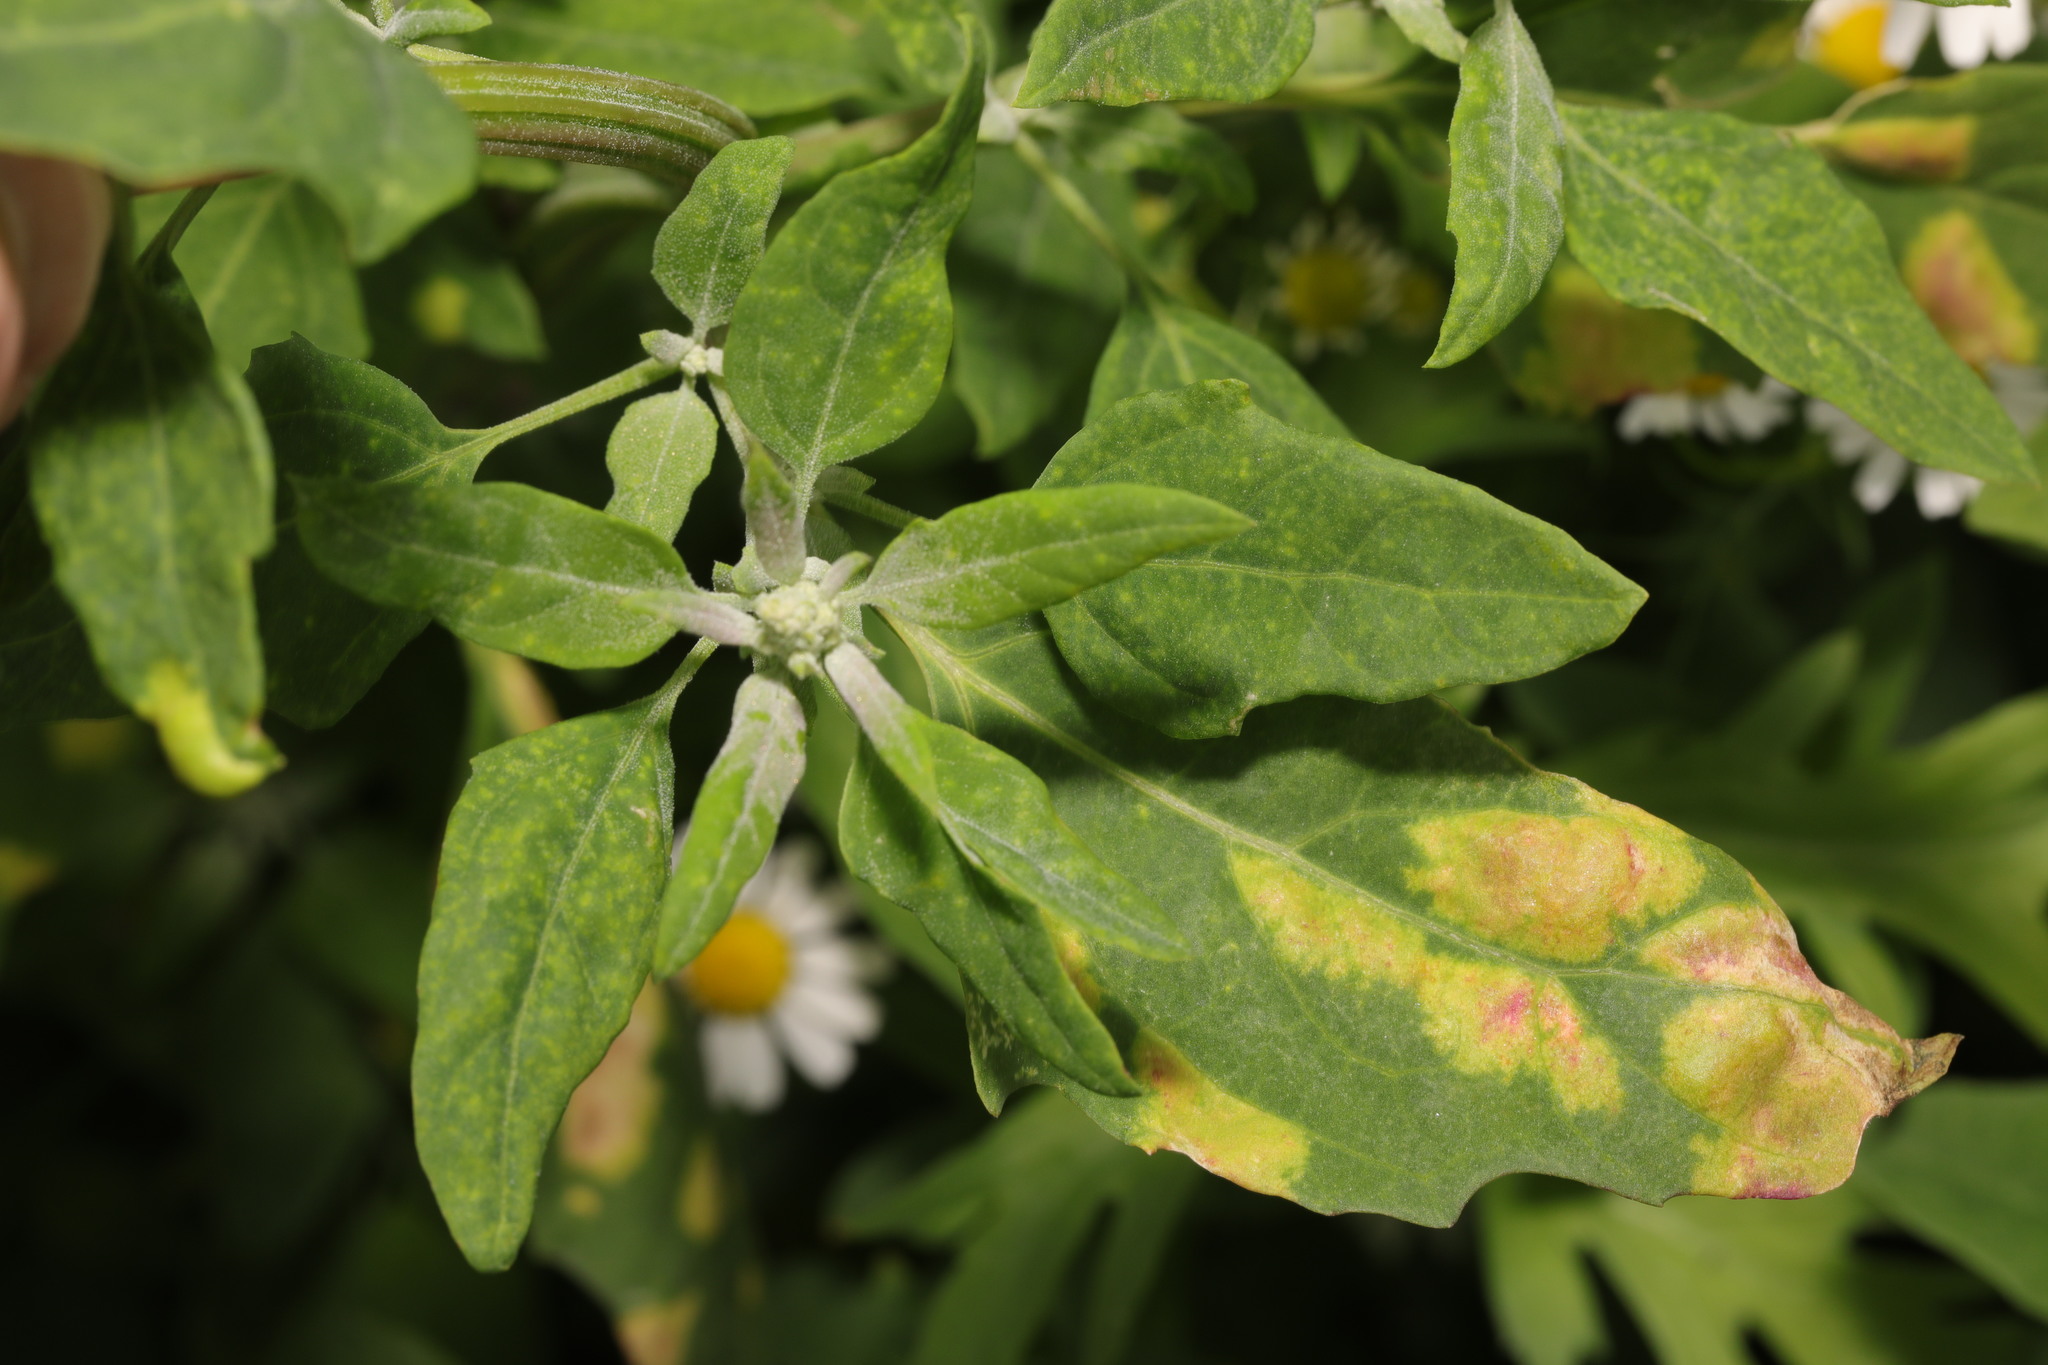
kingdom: Plantae
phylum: Tracheophyta
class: Magnoliopsida
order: Caryophyllales
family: Amaranthaceae
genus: Chenopodium
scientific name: Chenopodium album
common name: Fat-hen
